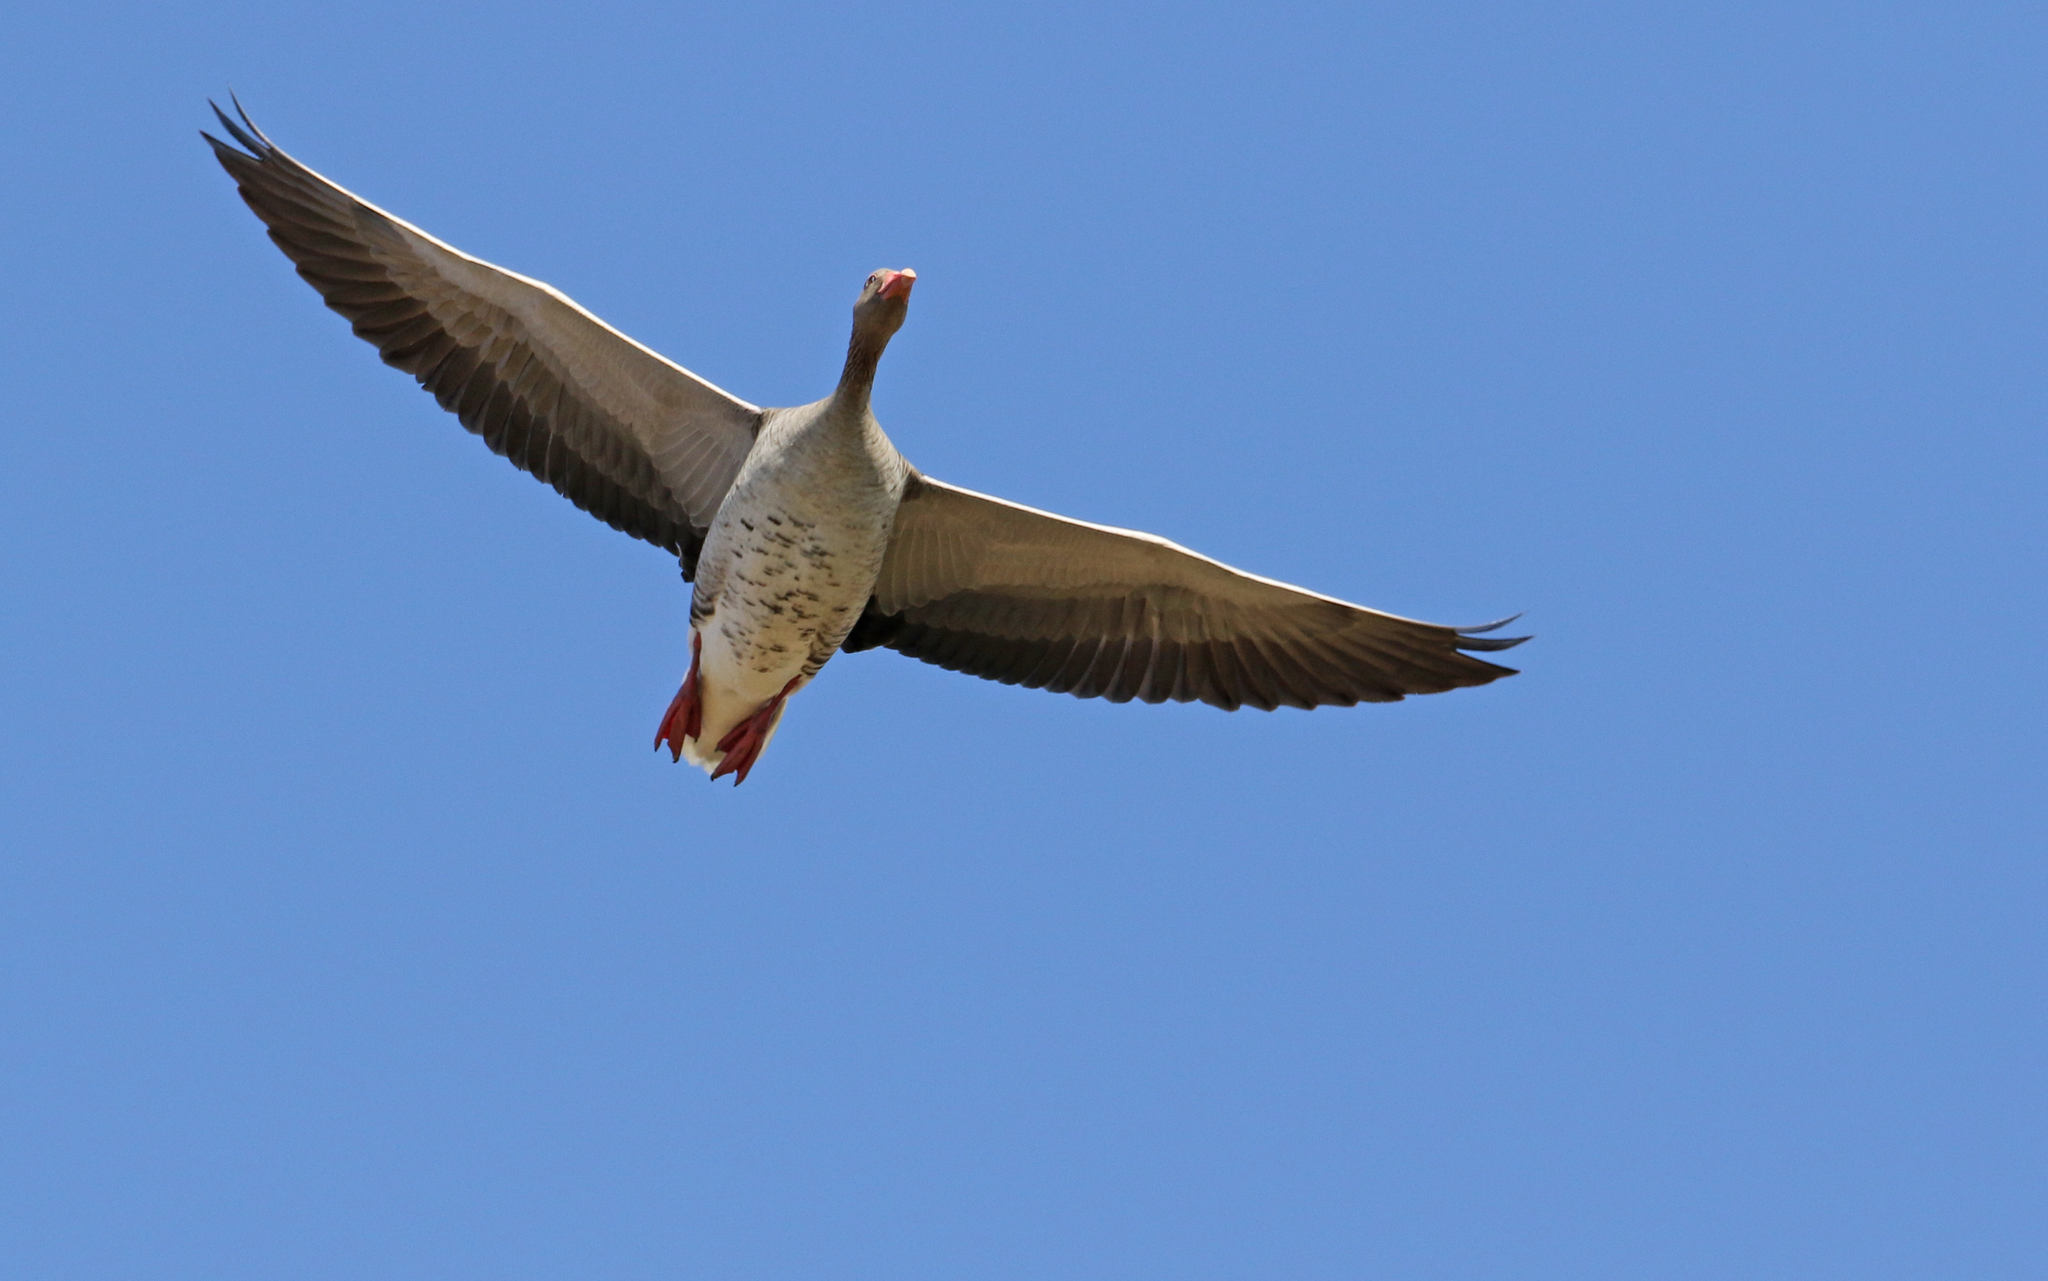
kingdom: Animalia
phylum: Chordata
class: Aves
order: Anseriformes
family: Anatidae
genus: Anser
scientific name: Anser anser
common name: Greylag goose
